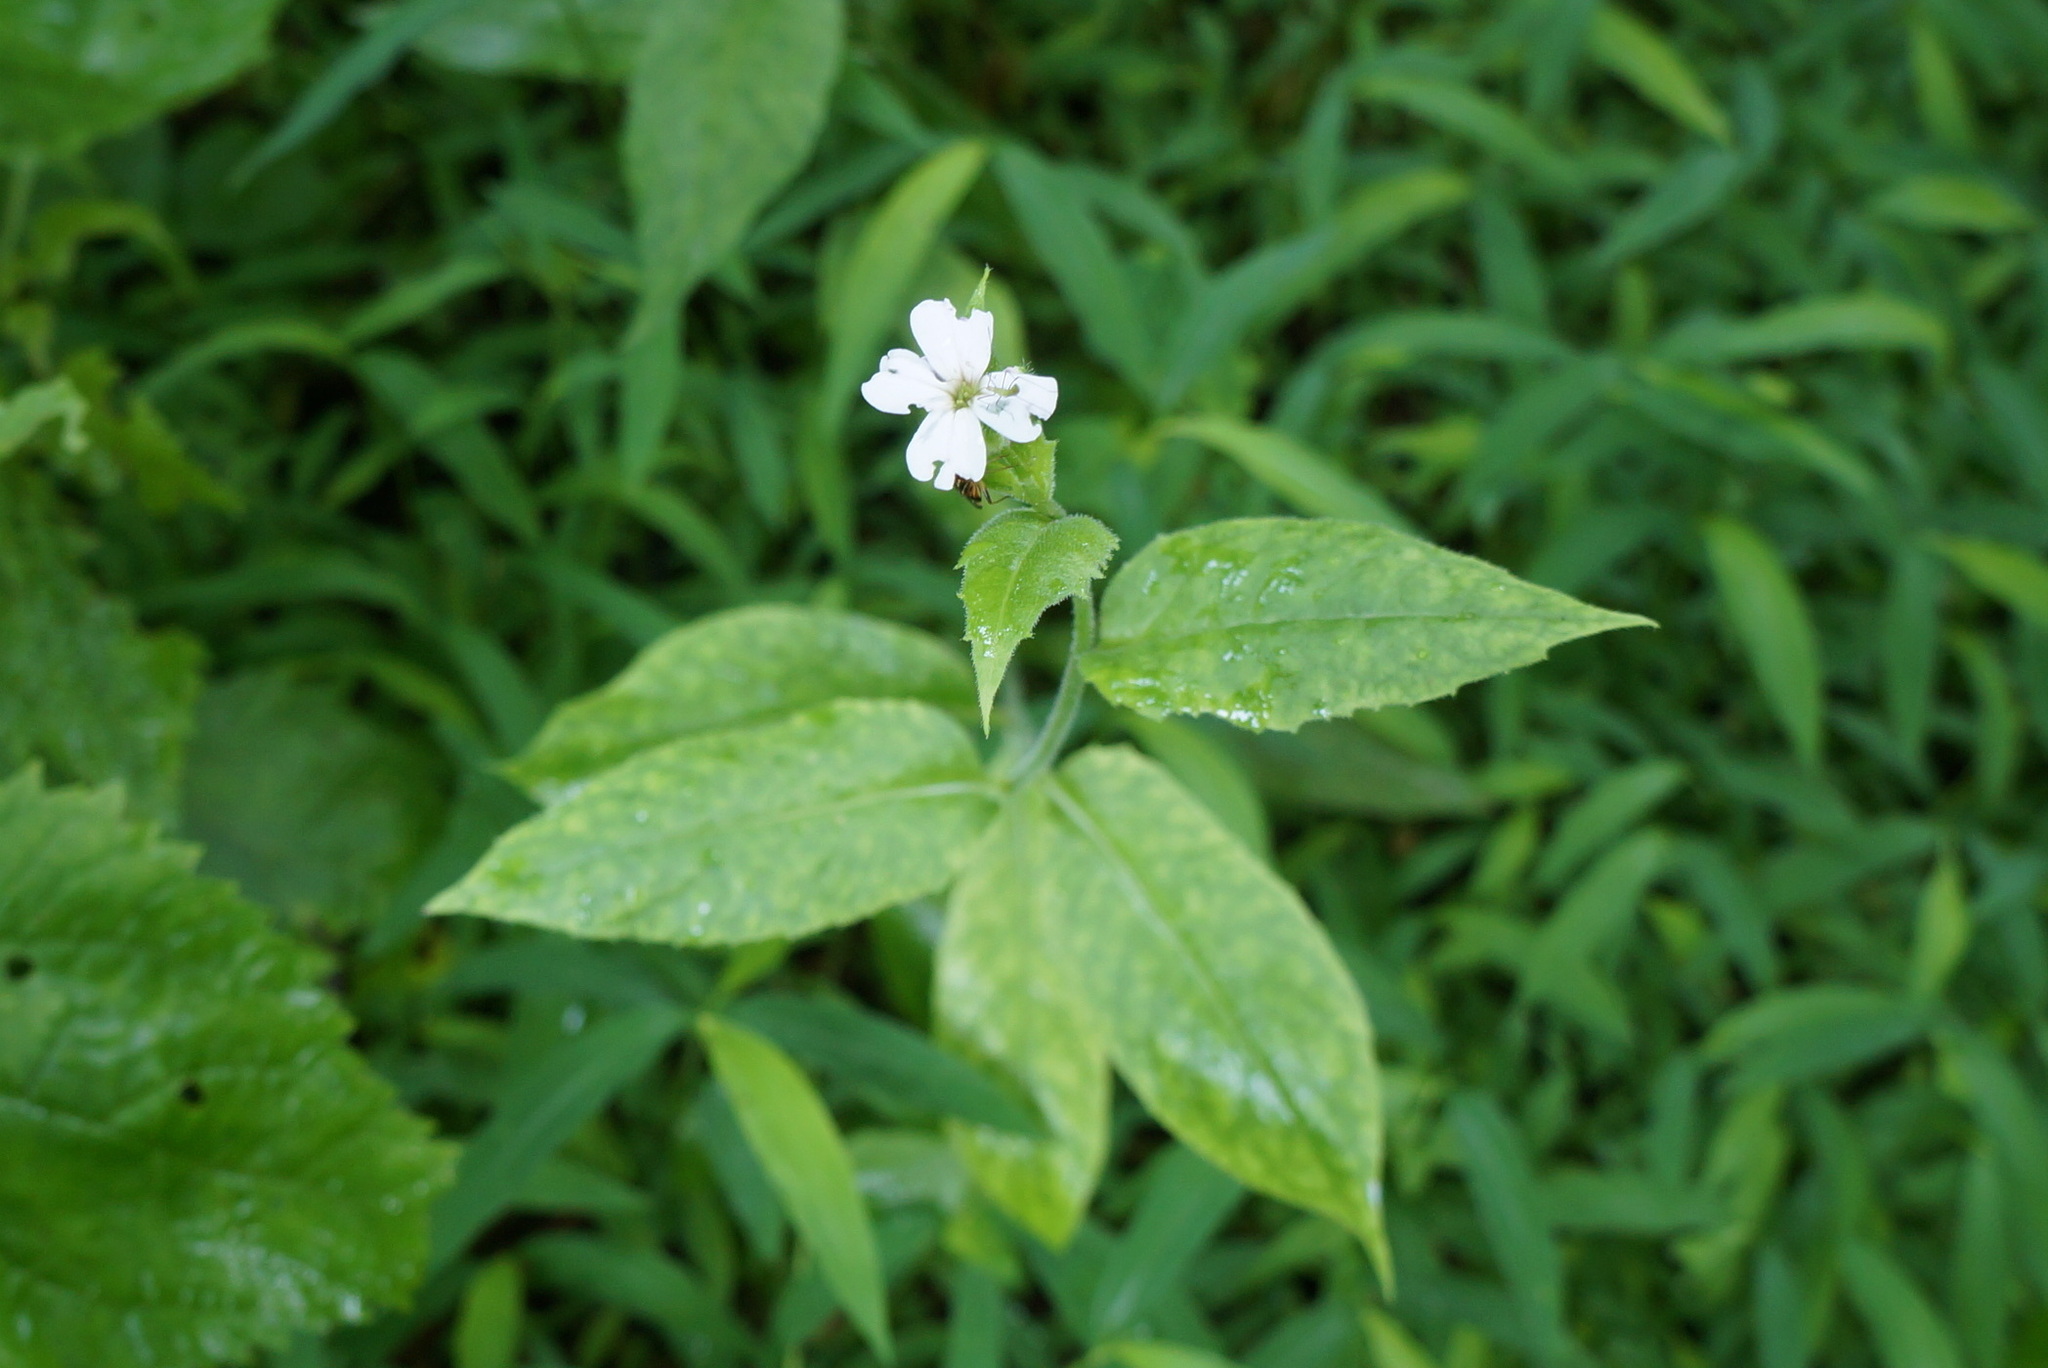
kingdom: Plantae
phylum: Tracheophyta
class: Magnoliopsida
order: Brassicales
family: Brassicaceae
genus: Hesperis
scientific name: Hesperis matronalis
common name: Dame's-violet
